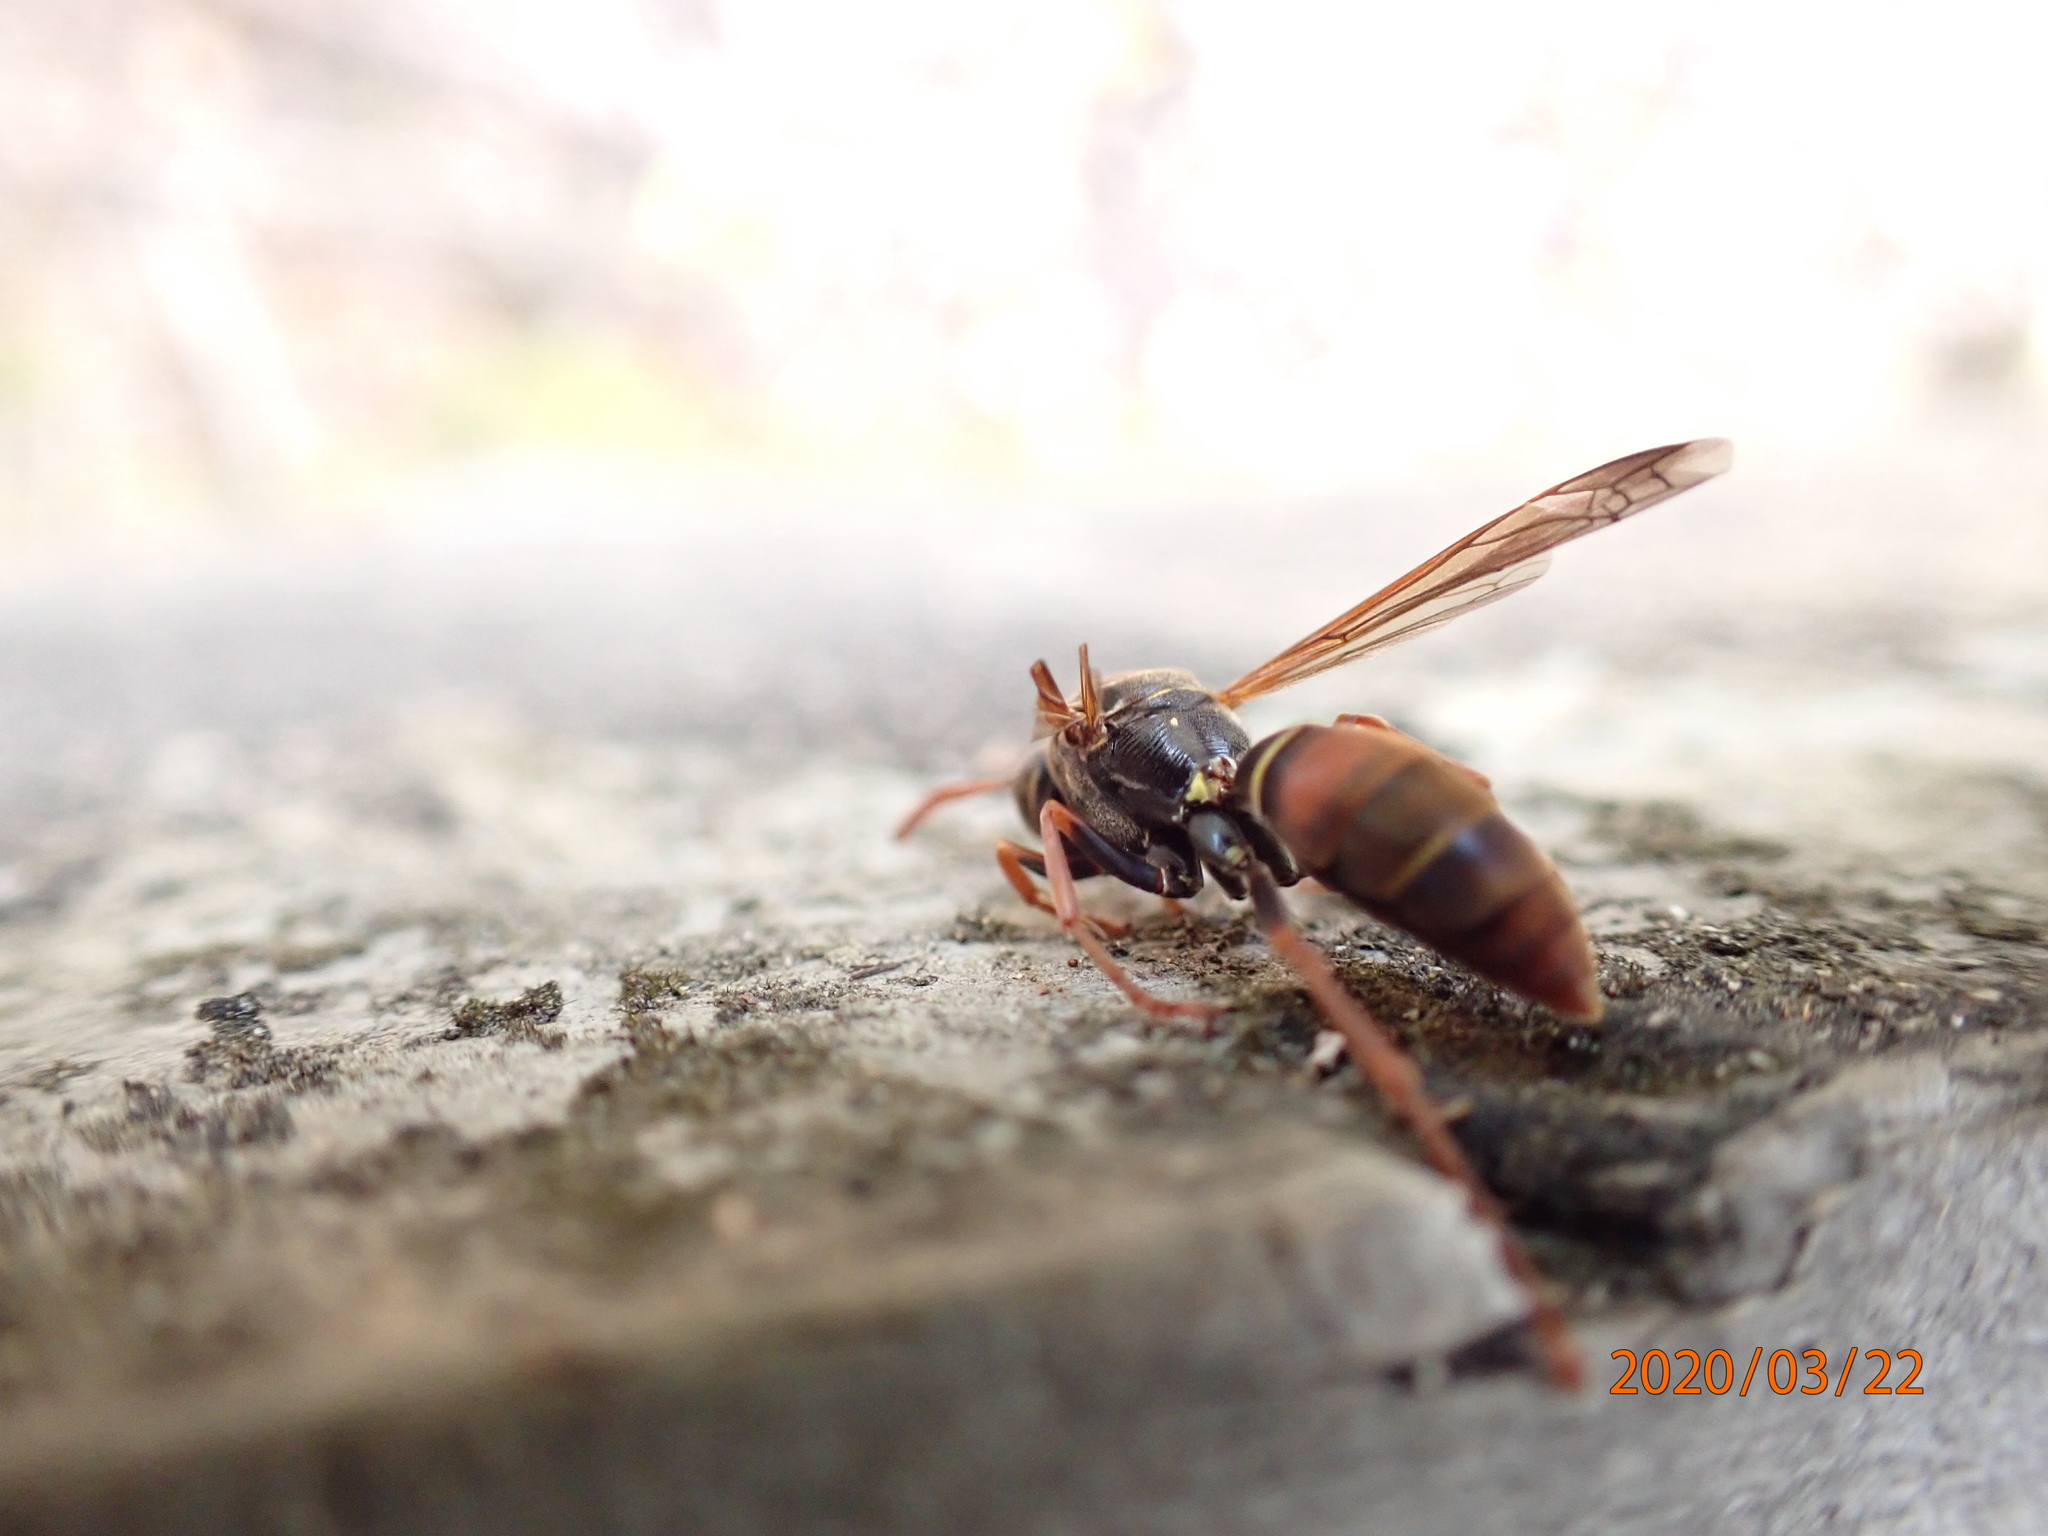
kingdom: Animalia
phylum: Arthropoda
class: Insecta
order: Hymenoptera
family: Eumenidae
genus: Polistes
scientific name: Polistes humilis
